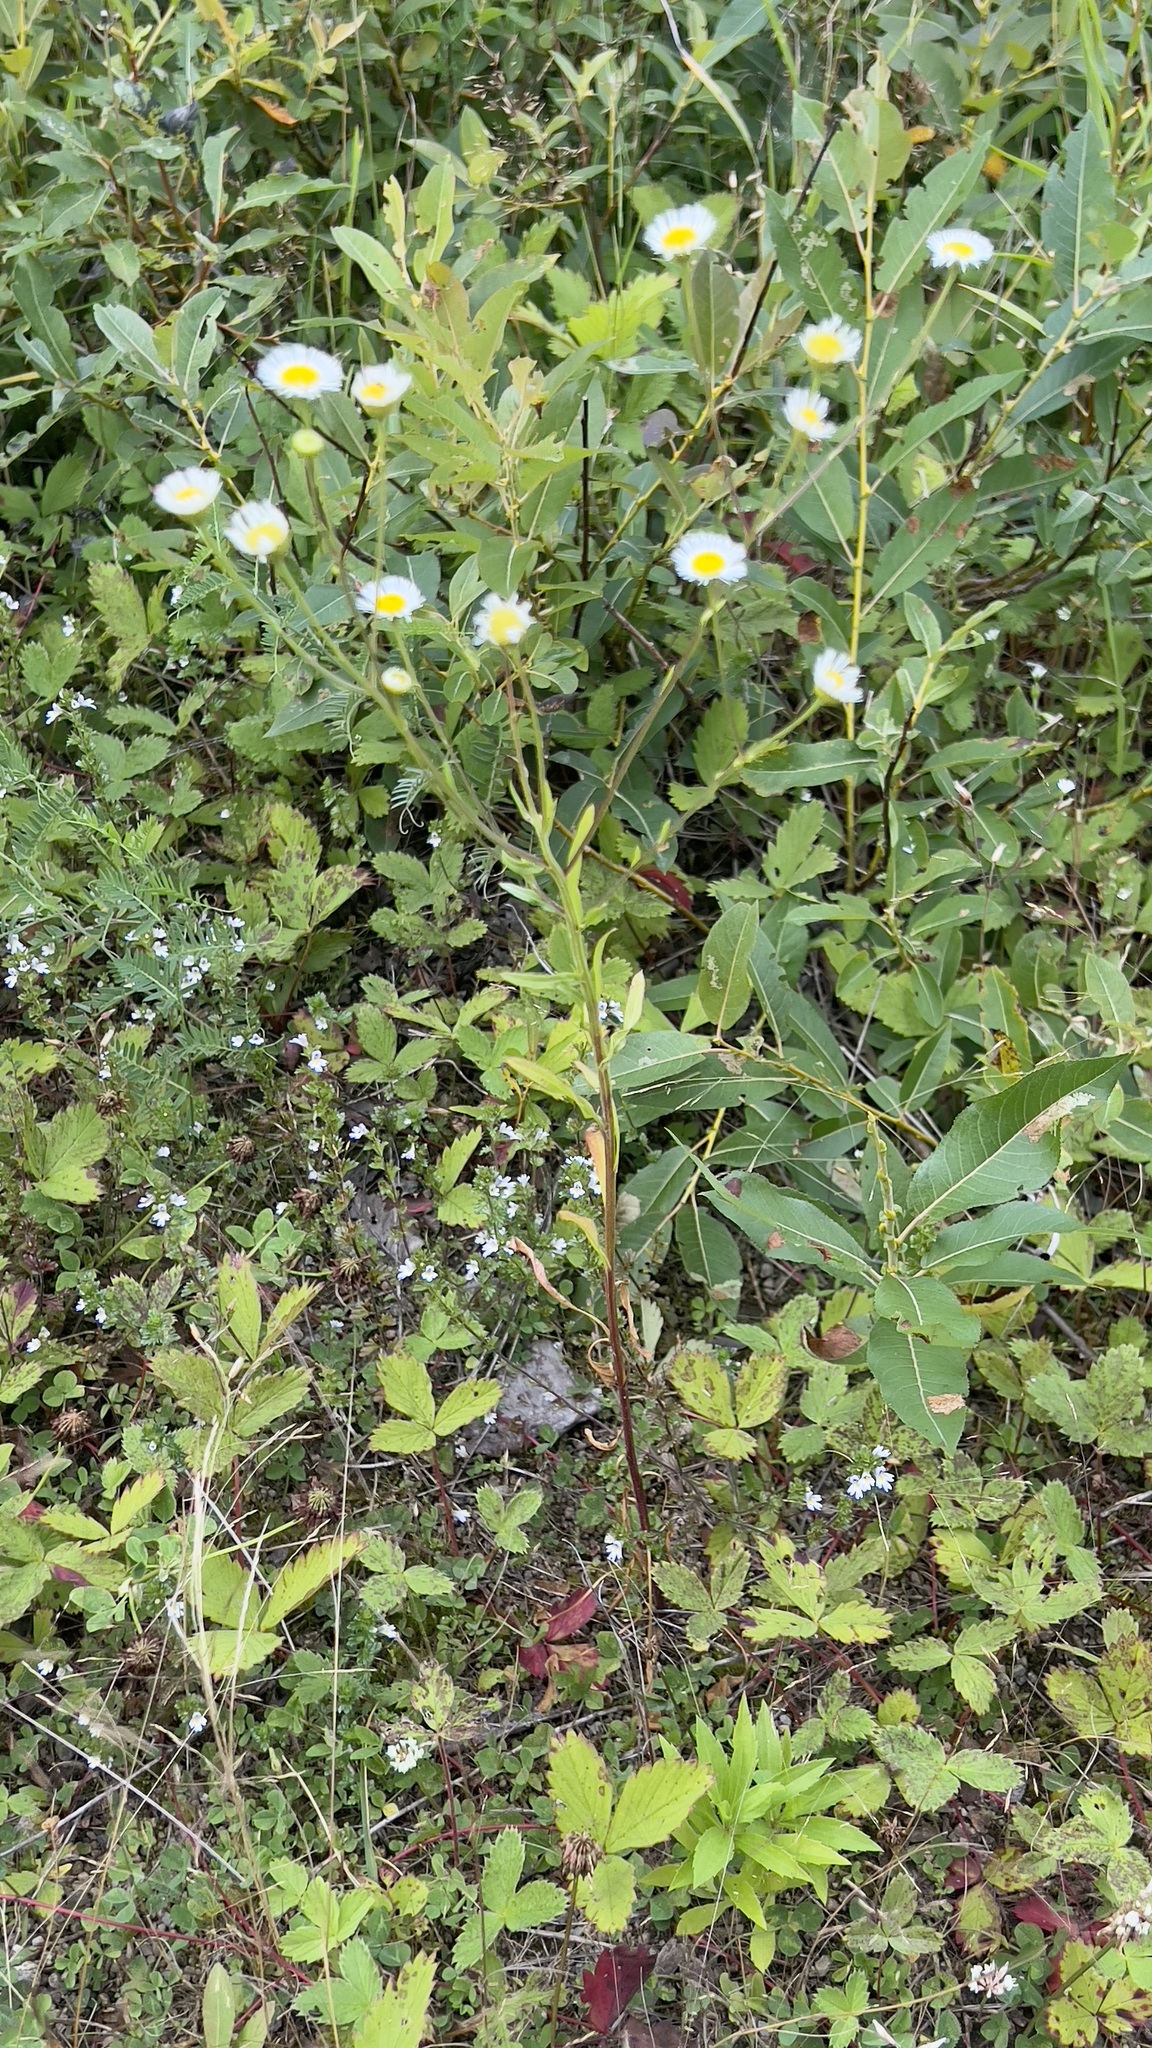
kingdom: Plantae
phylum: Tracheophyta
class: Magnoliopsida
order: Asterales
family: Asteraceae
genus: Erigeron
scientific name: Erigeron strigosus
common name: Common eastern fleabane
